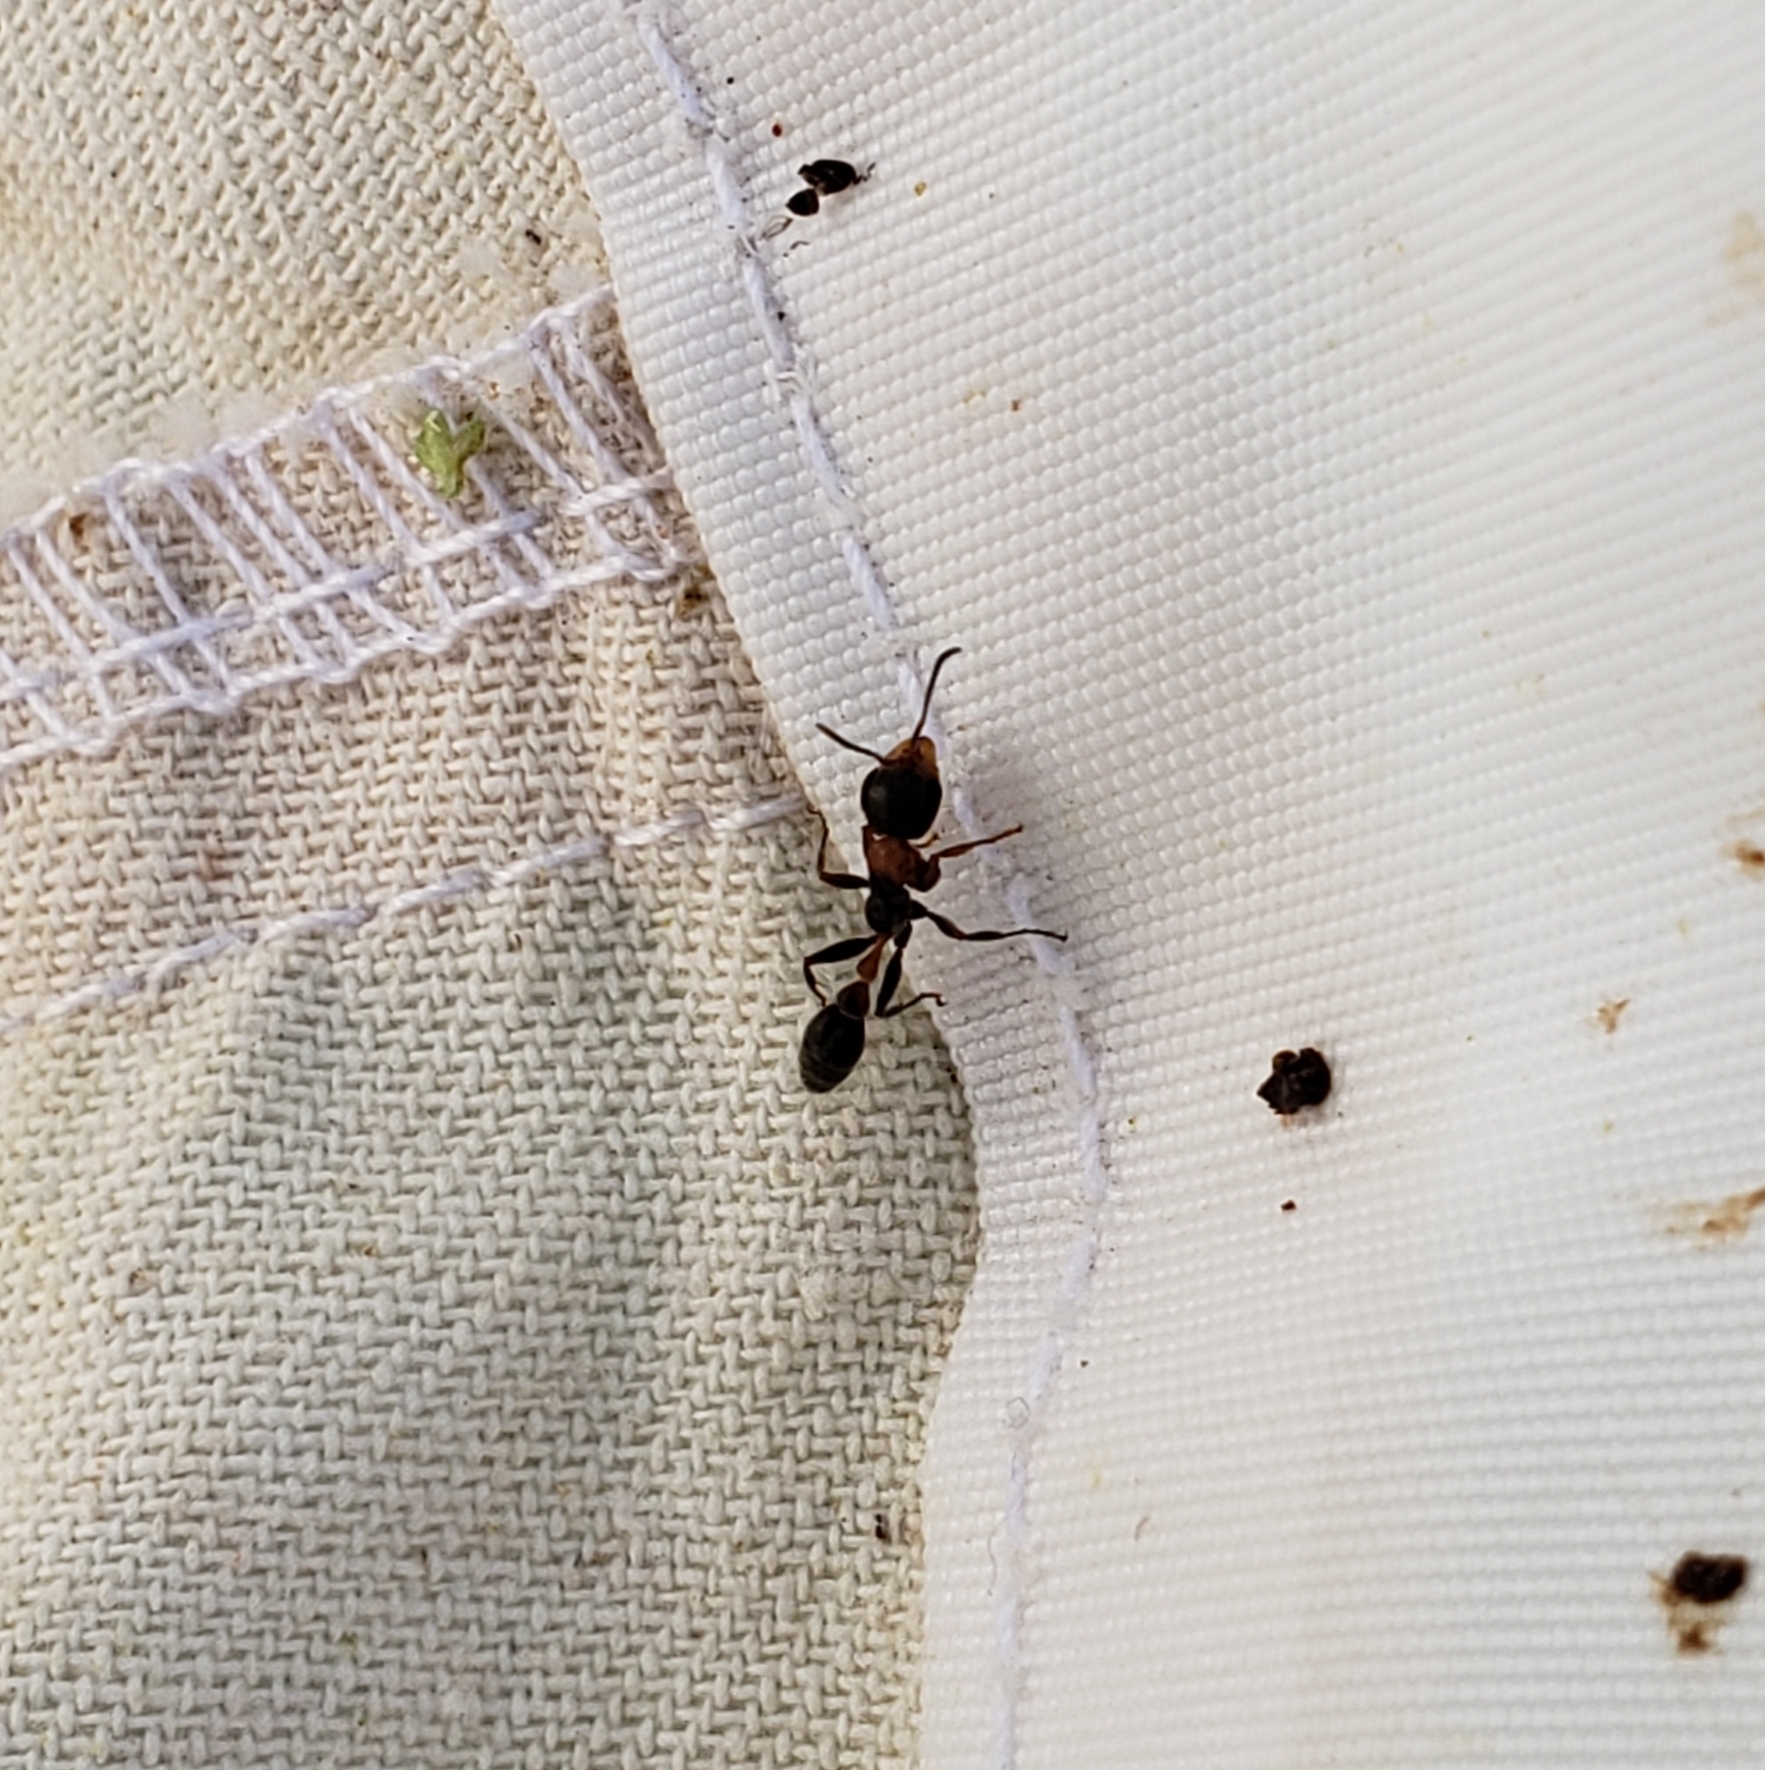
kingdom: Animalia
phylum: Arthropoda
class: Insecta
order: Hymenoptera
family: Formicidae
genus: Pseudomyrmex
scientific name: Pseudomyrmex gracilis
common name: Graceful twig ant
